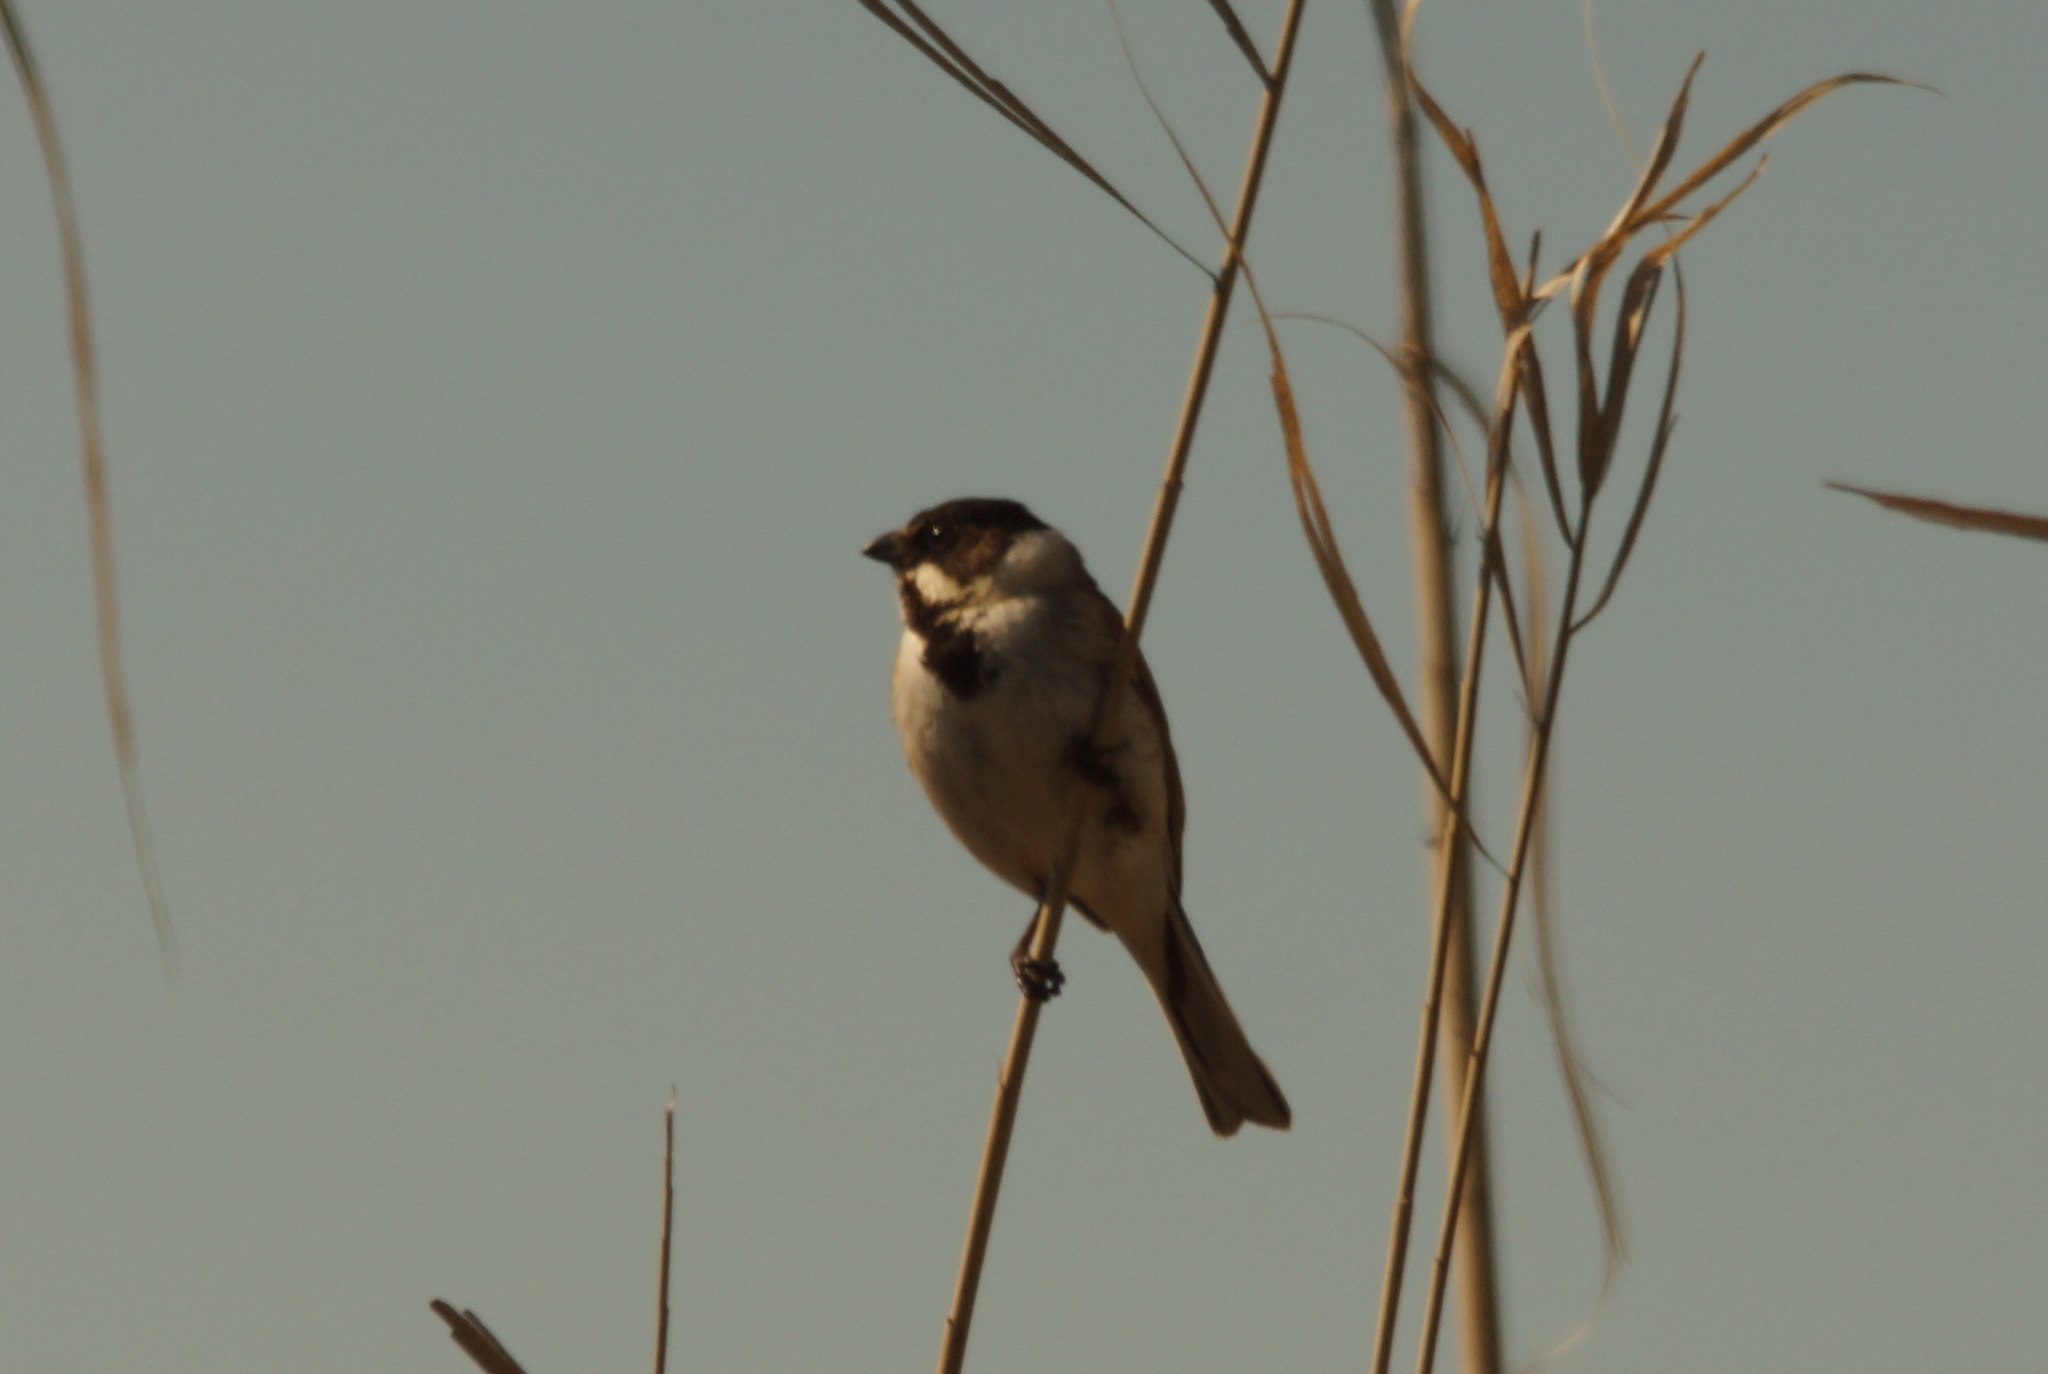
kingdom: Animalia
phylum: Chordata
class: Aves
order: Passeriformes
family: Emberizidae
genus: Emberiza
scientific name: Emberiza schoeniclus
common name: Reed bunting
